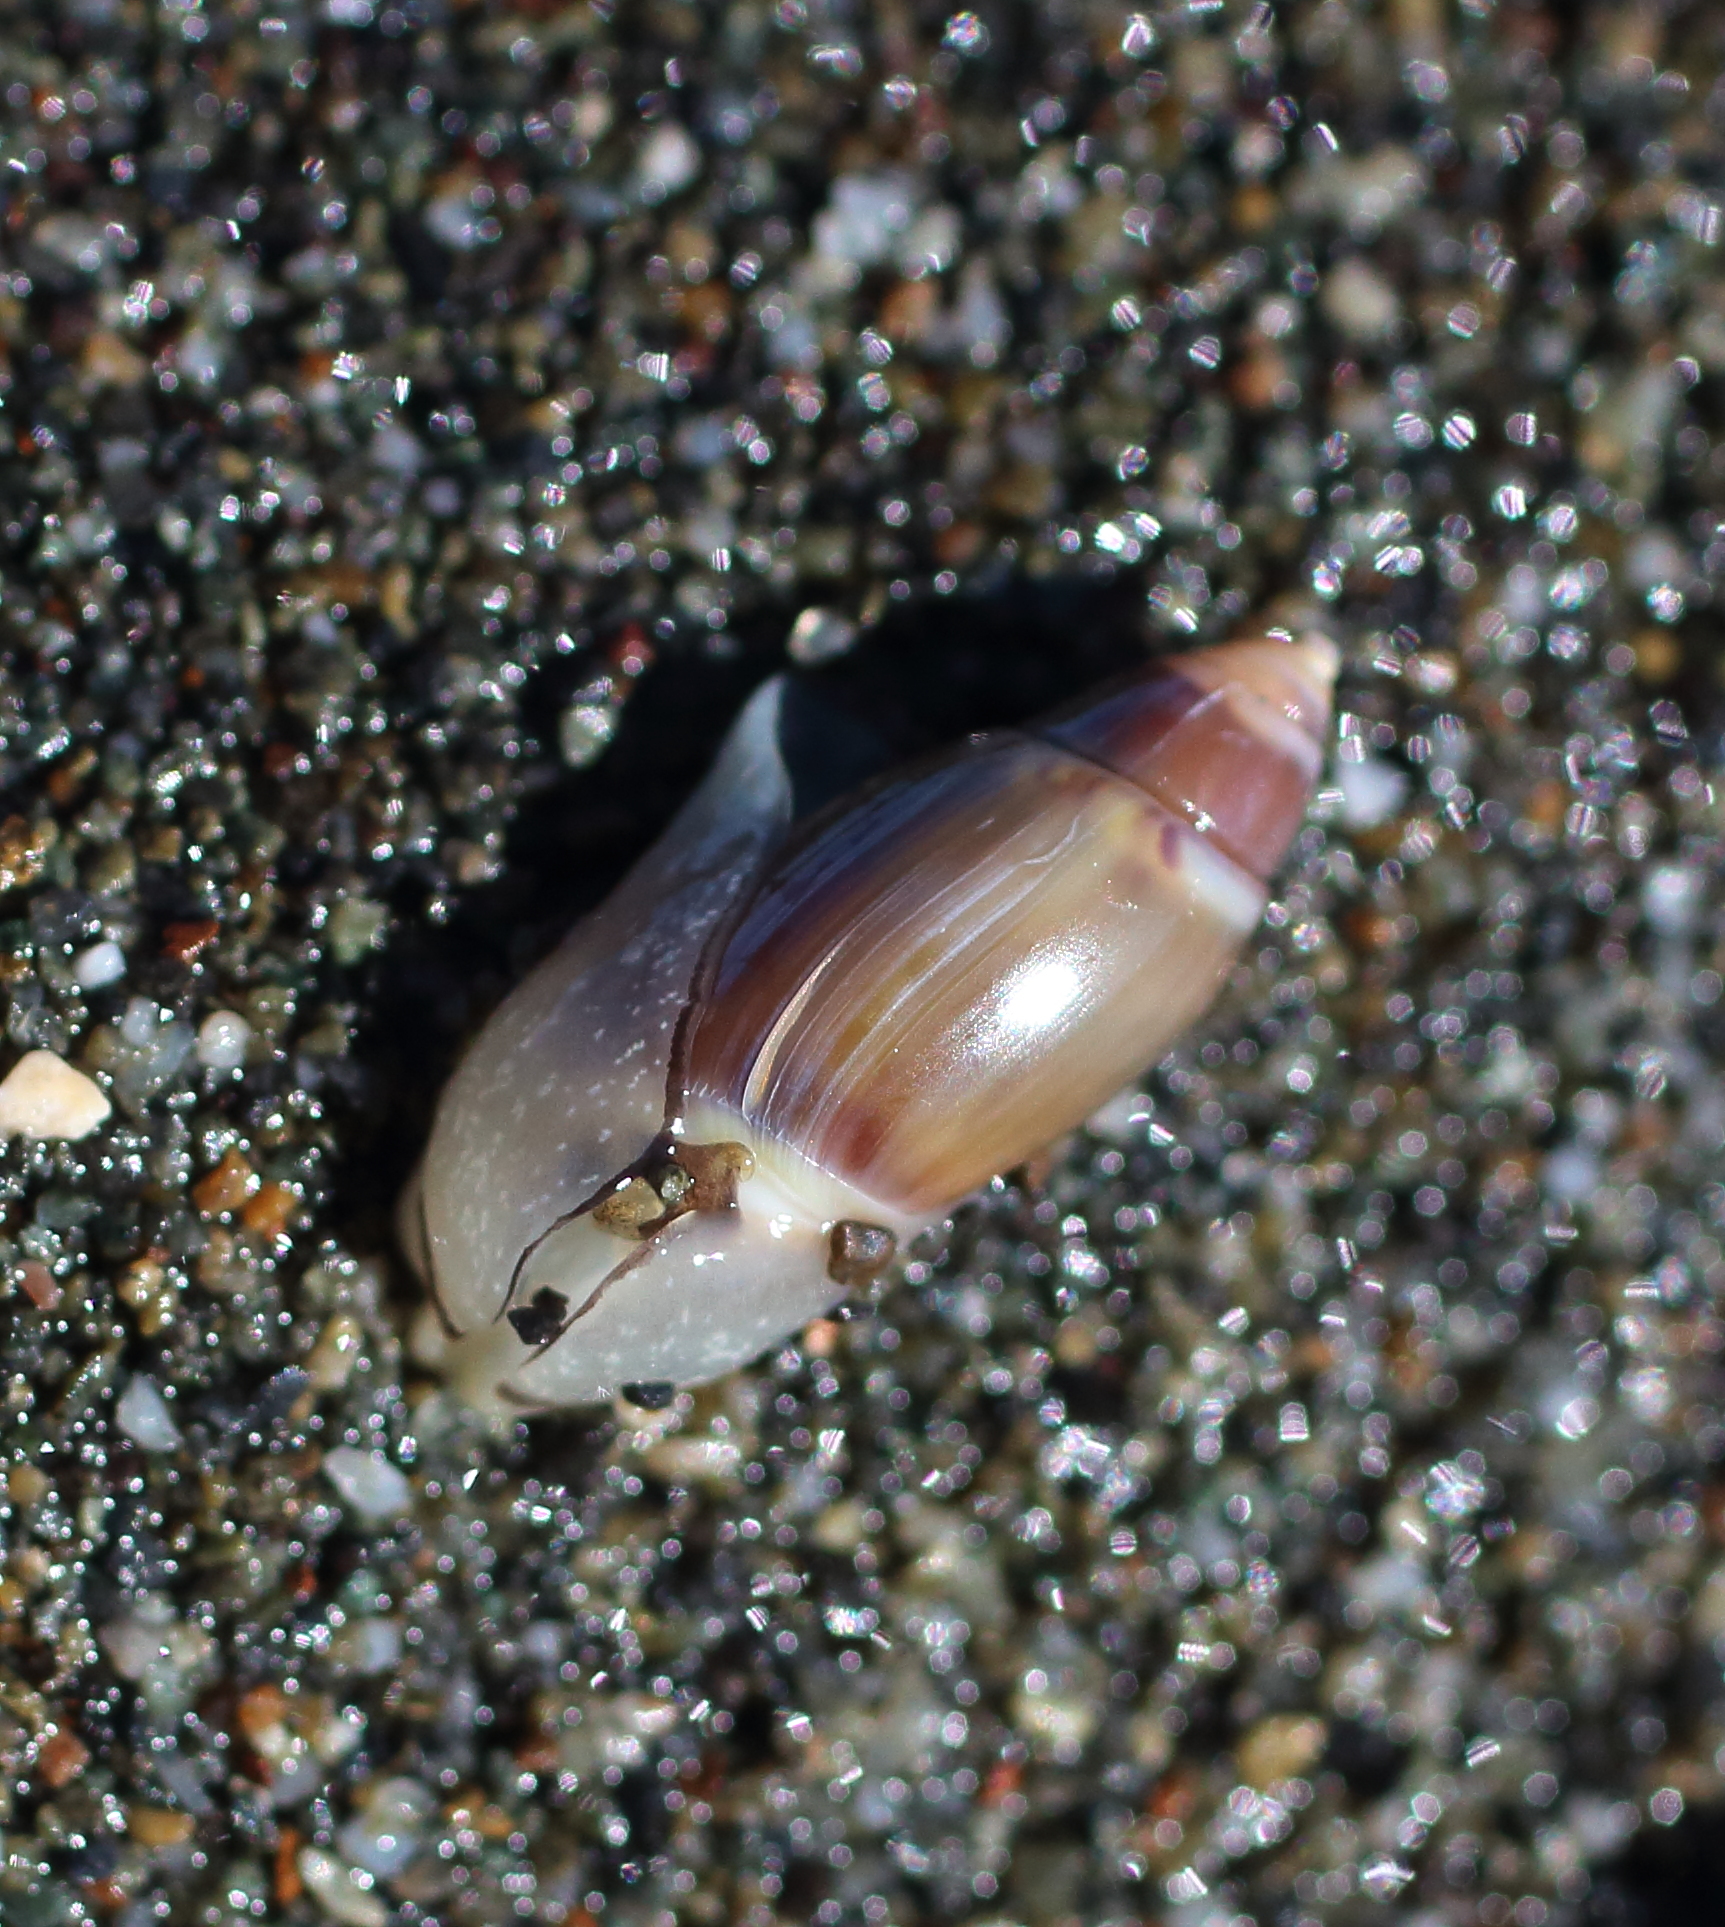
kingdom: Animalia
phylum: Mollusca
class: Gastropoda
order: Neogastropoda
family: Olividae
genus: Callianax
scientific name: Callianax alectona
